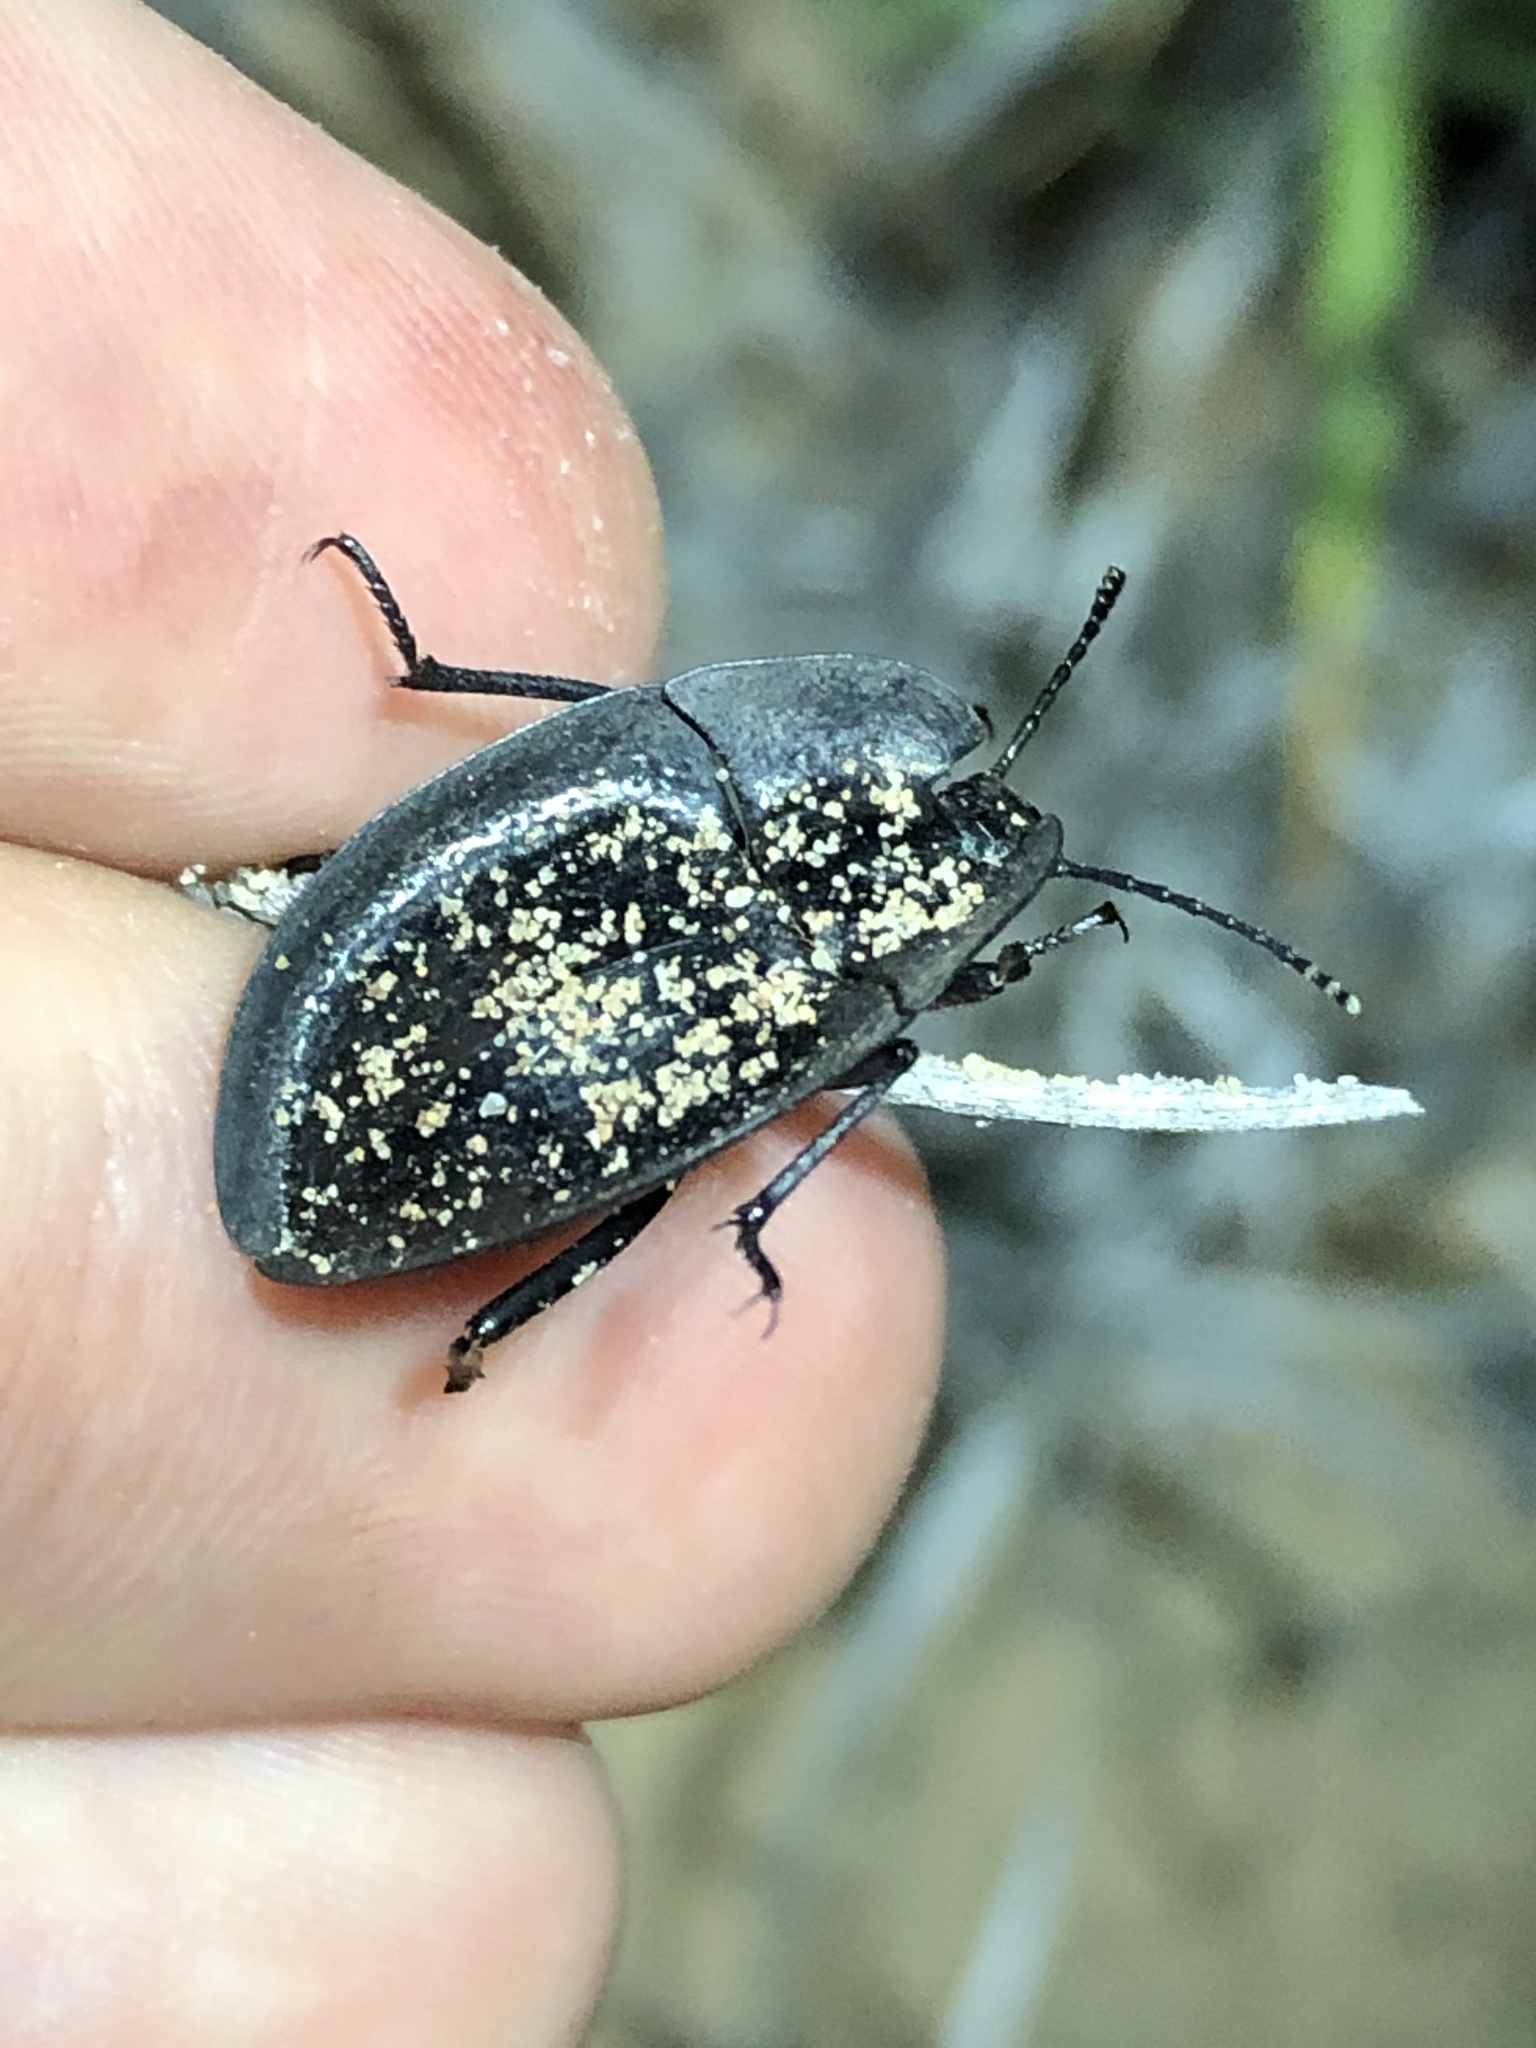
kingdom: Animalia
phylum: Arthropoda
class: Insecta
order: Coleoptera
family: Tenebrionidae
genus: Embaphion
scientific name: Embaphion muricatum
